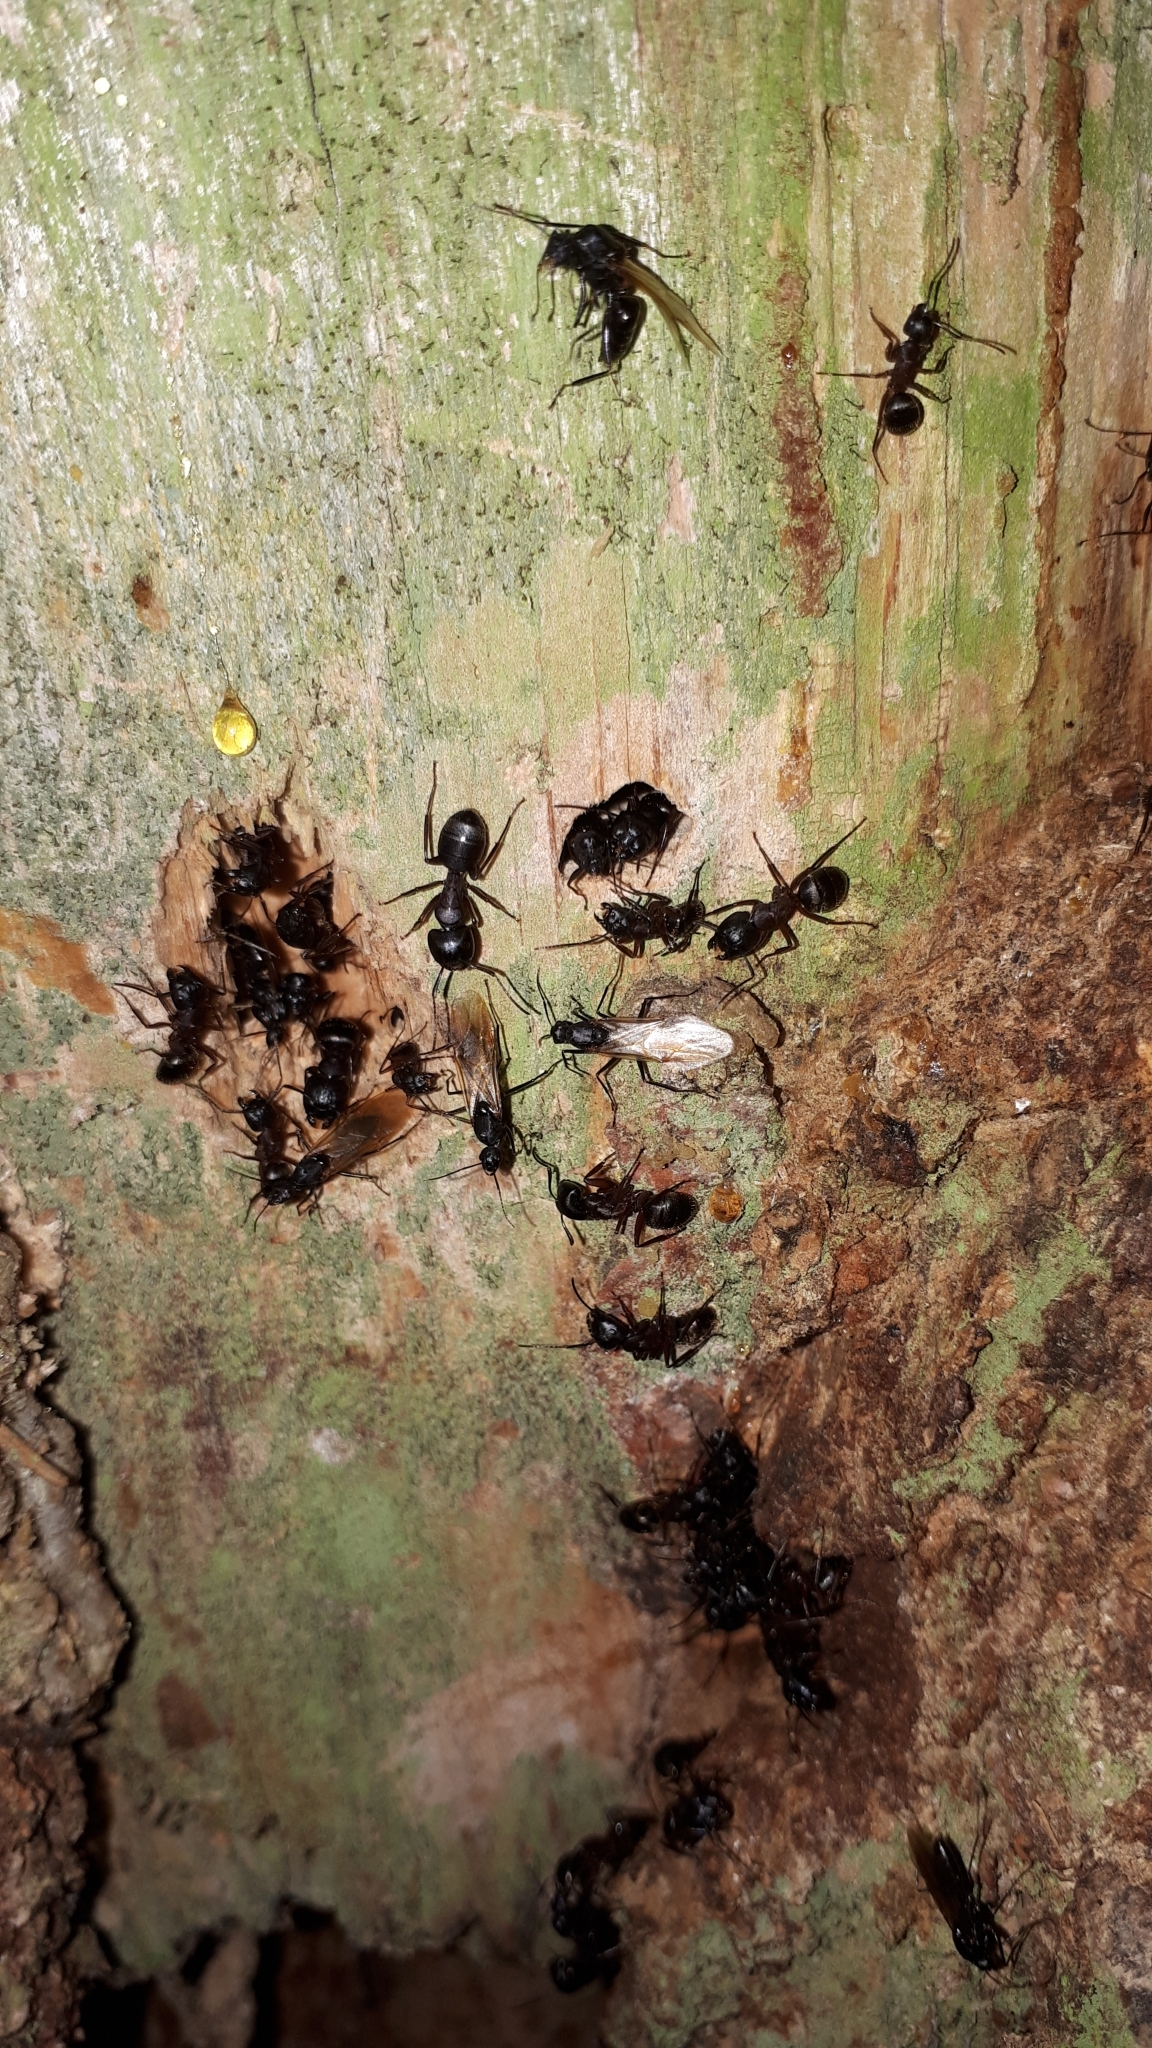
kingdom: Animalia
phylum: Arthropoda
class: Insecta
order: Hymenoptera
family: Formicidae
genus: Camponotus
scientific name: Camponotus herculeanus
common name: Hercules ant
